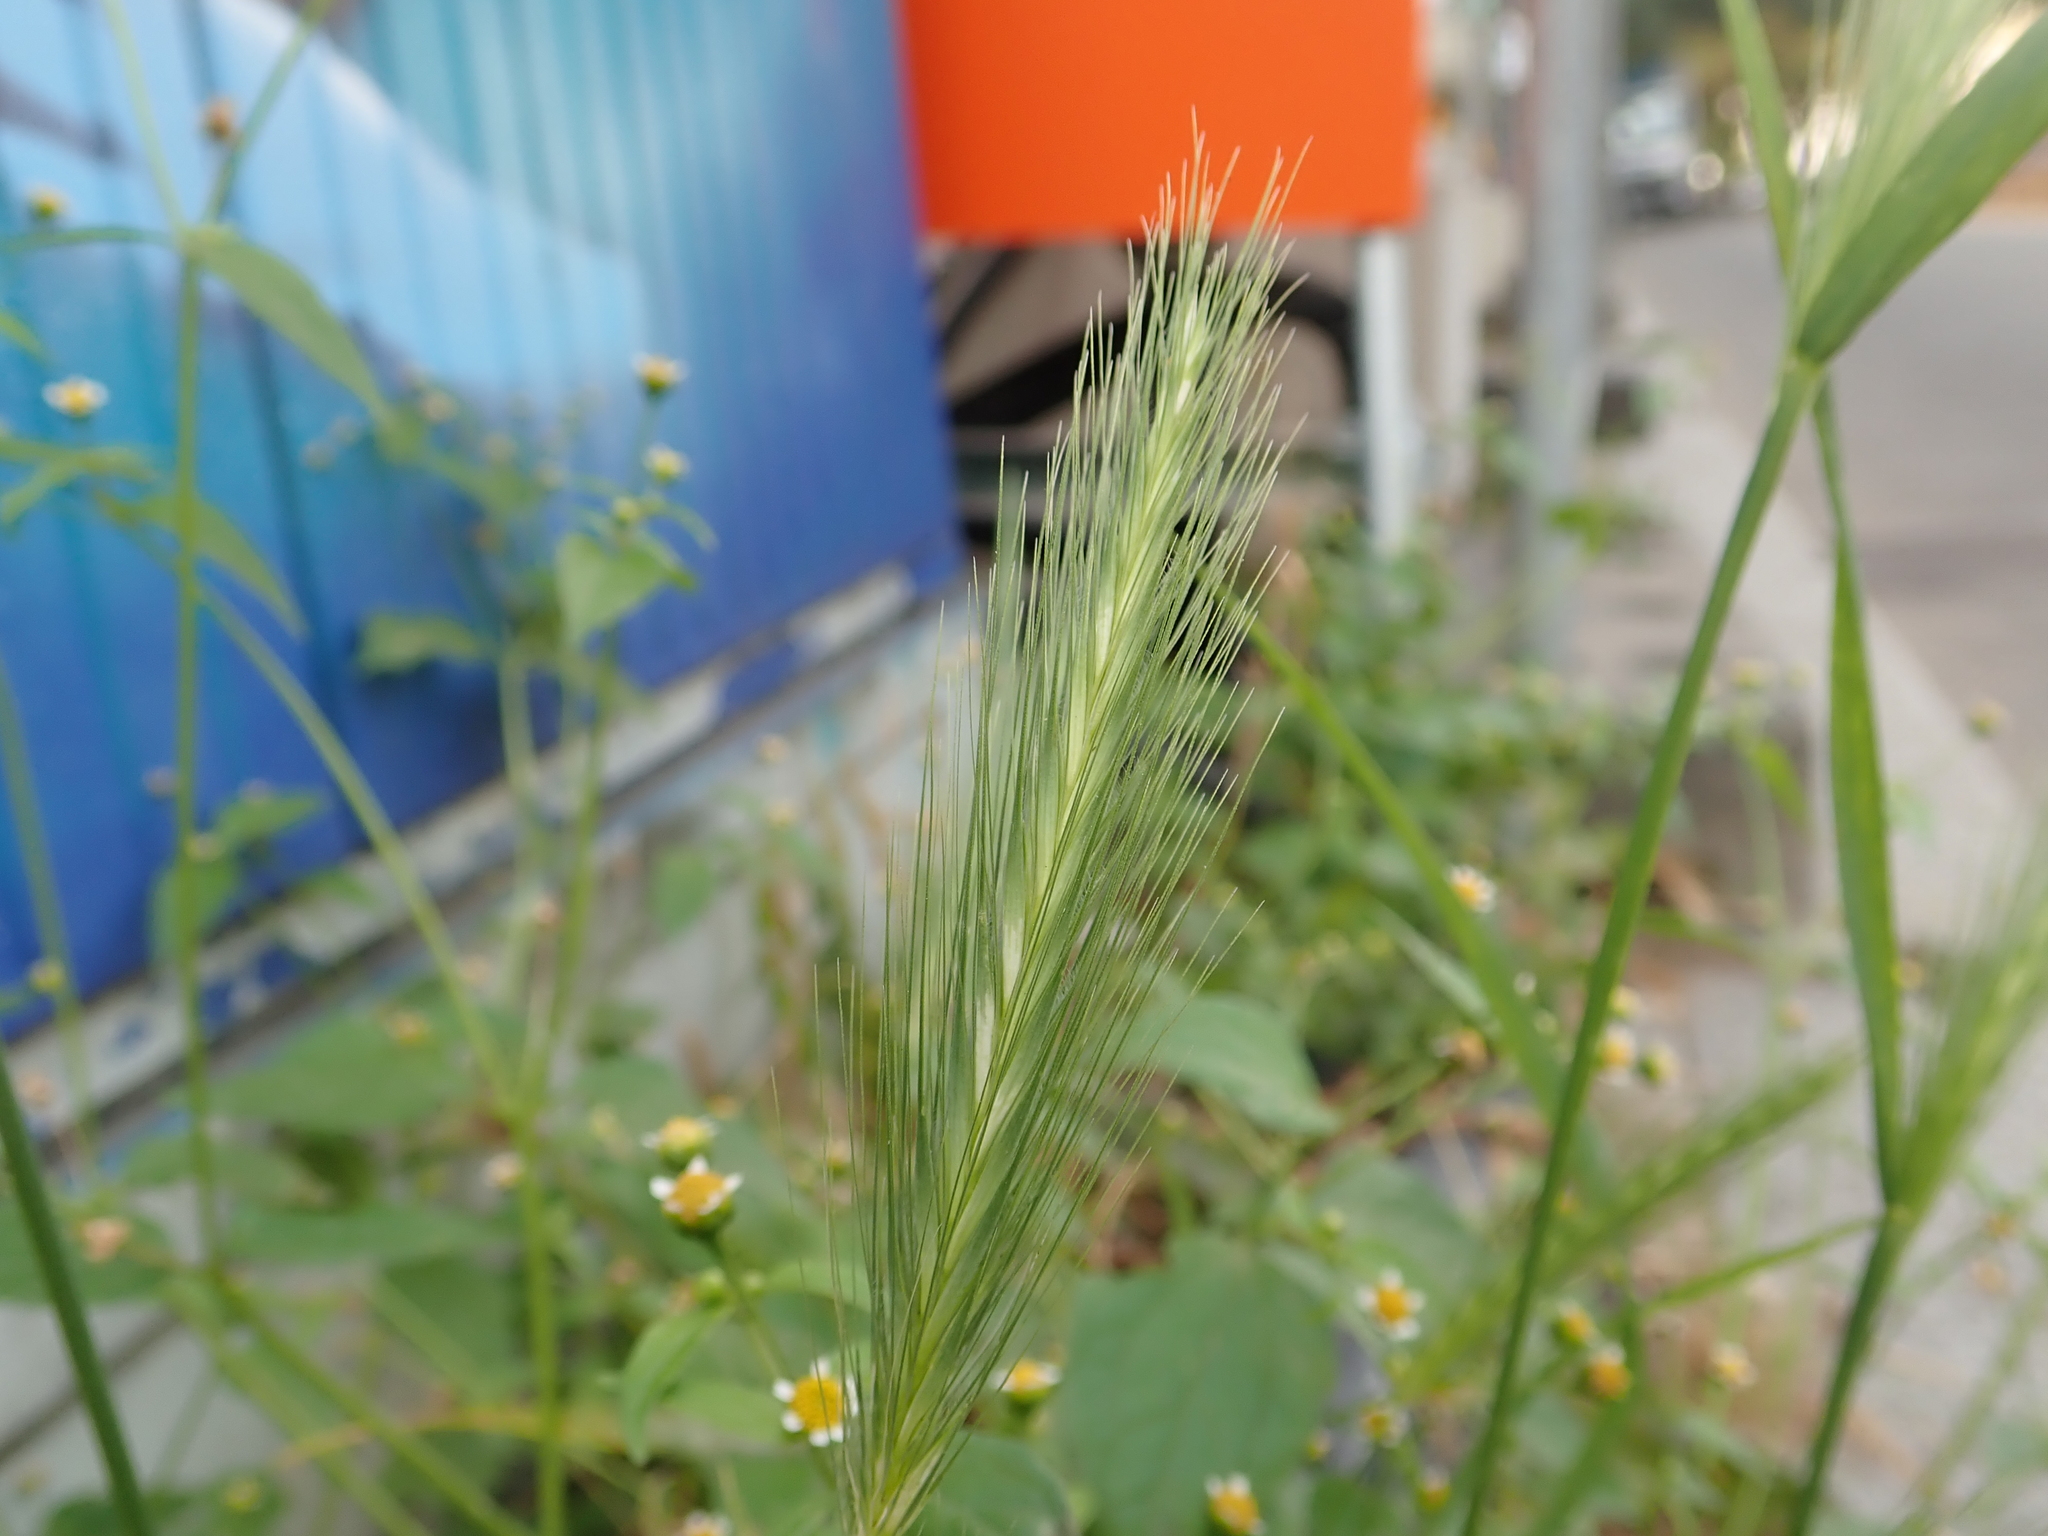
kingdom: Plantae
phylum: Tracheophyta
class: Liliopsida
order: Poales
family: Poaceae
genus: Hordeum
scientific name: Hordeum murinum
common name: Wall barley
